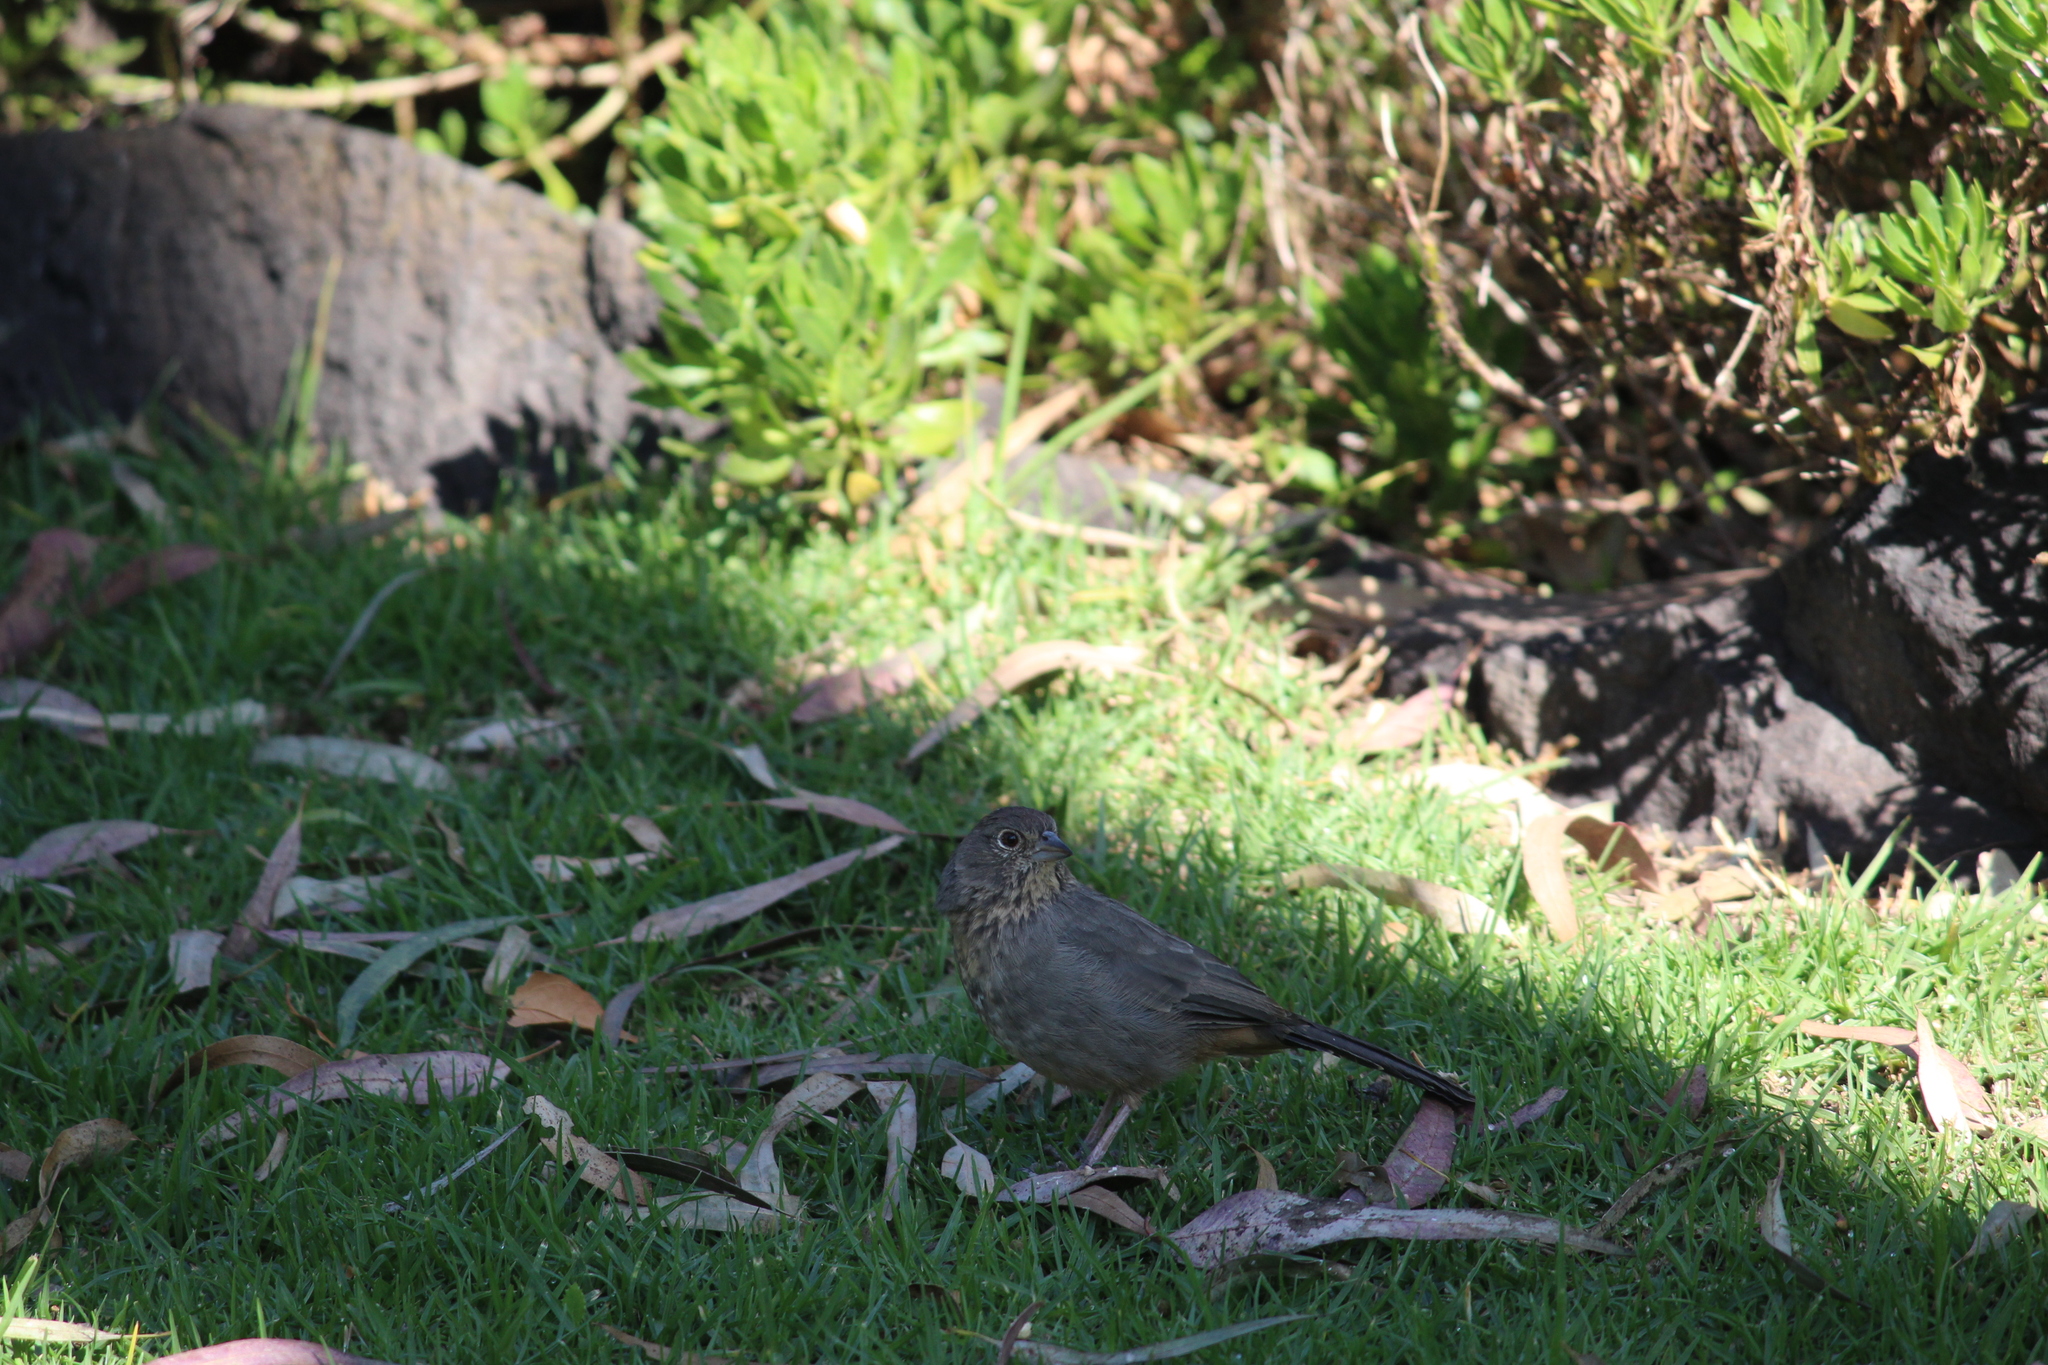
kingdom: Animalia
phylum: Chordata
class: Aves
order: Passeriformes
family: Passerellidae
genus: Melozone
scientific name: Melozone fusca
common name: Canyon towhee
